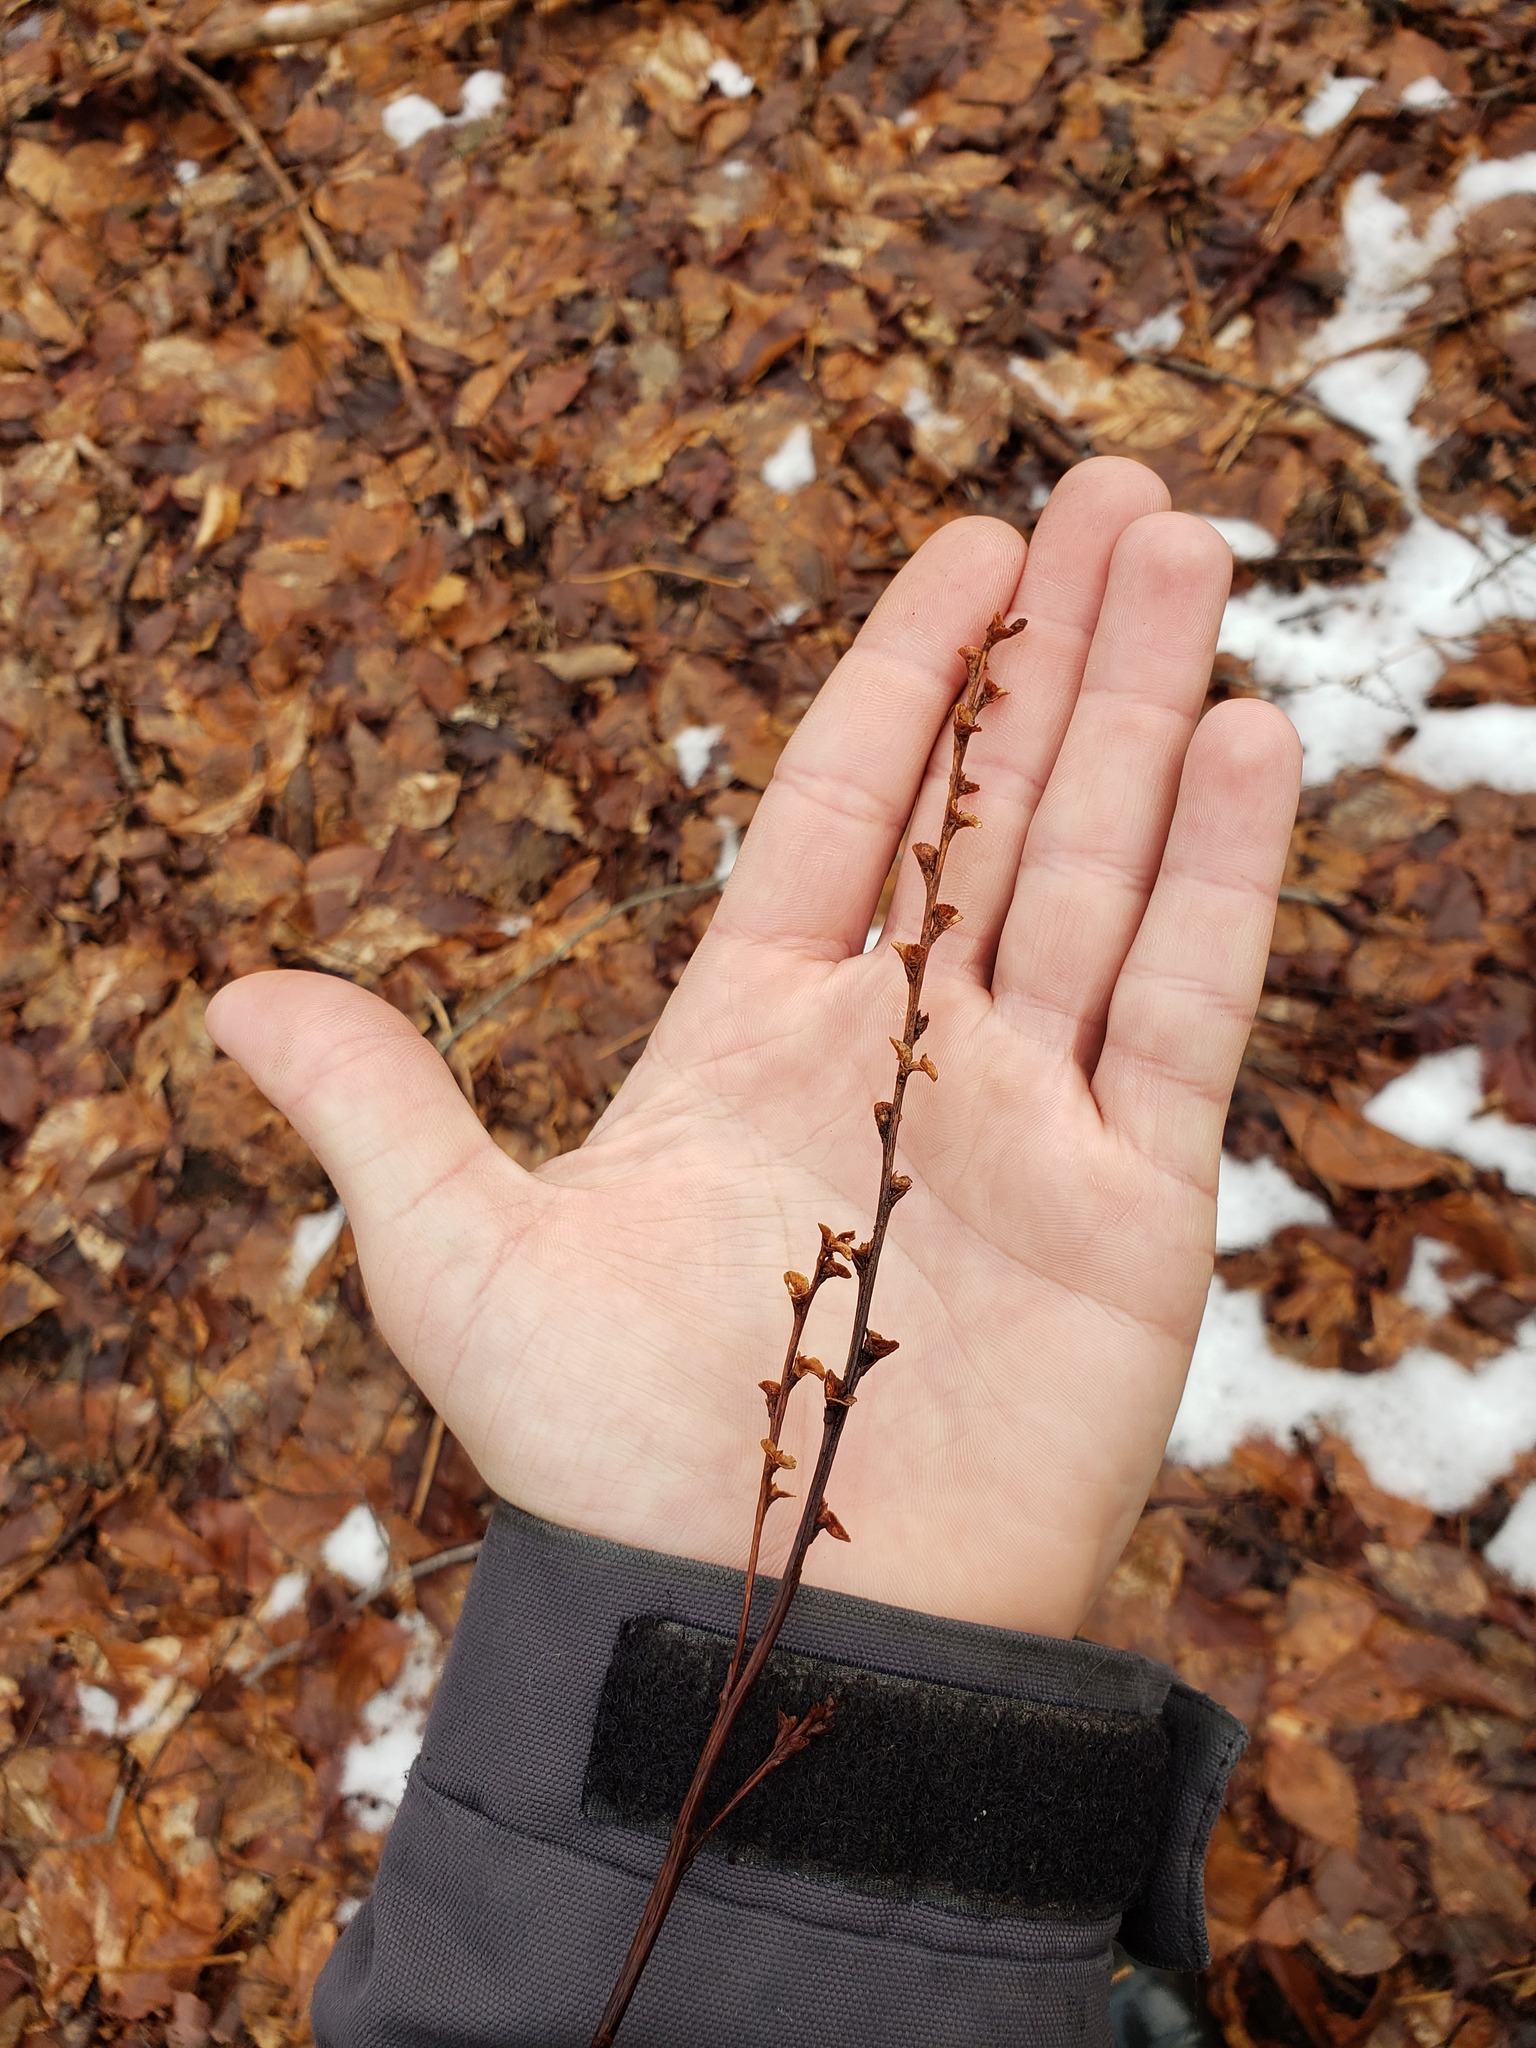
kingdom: Plantae
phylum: Tracheophyta
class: Magnoliopsida
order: Lamiales
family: Orobanchaceae
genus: Epifagus
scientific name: Epifagus virginiana
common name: Beechdrops
